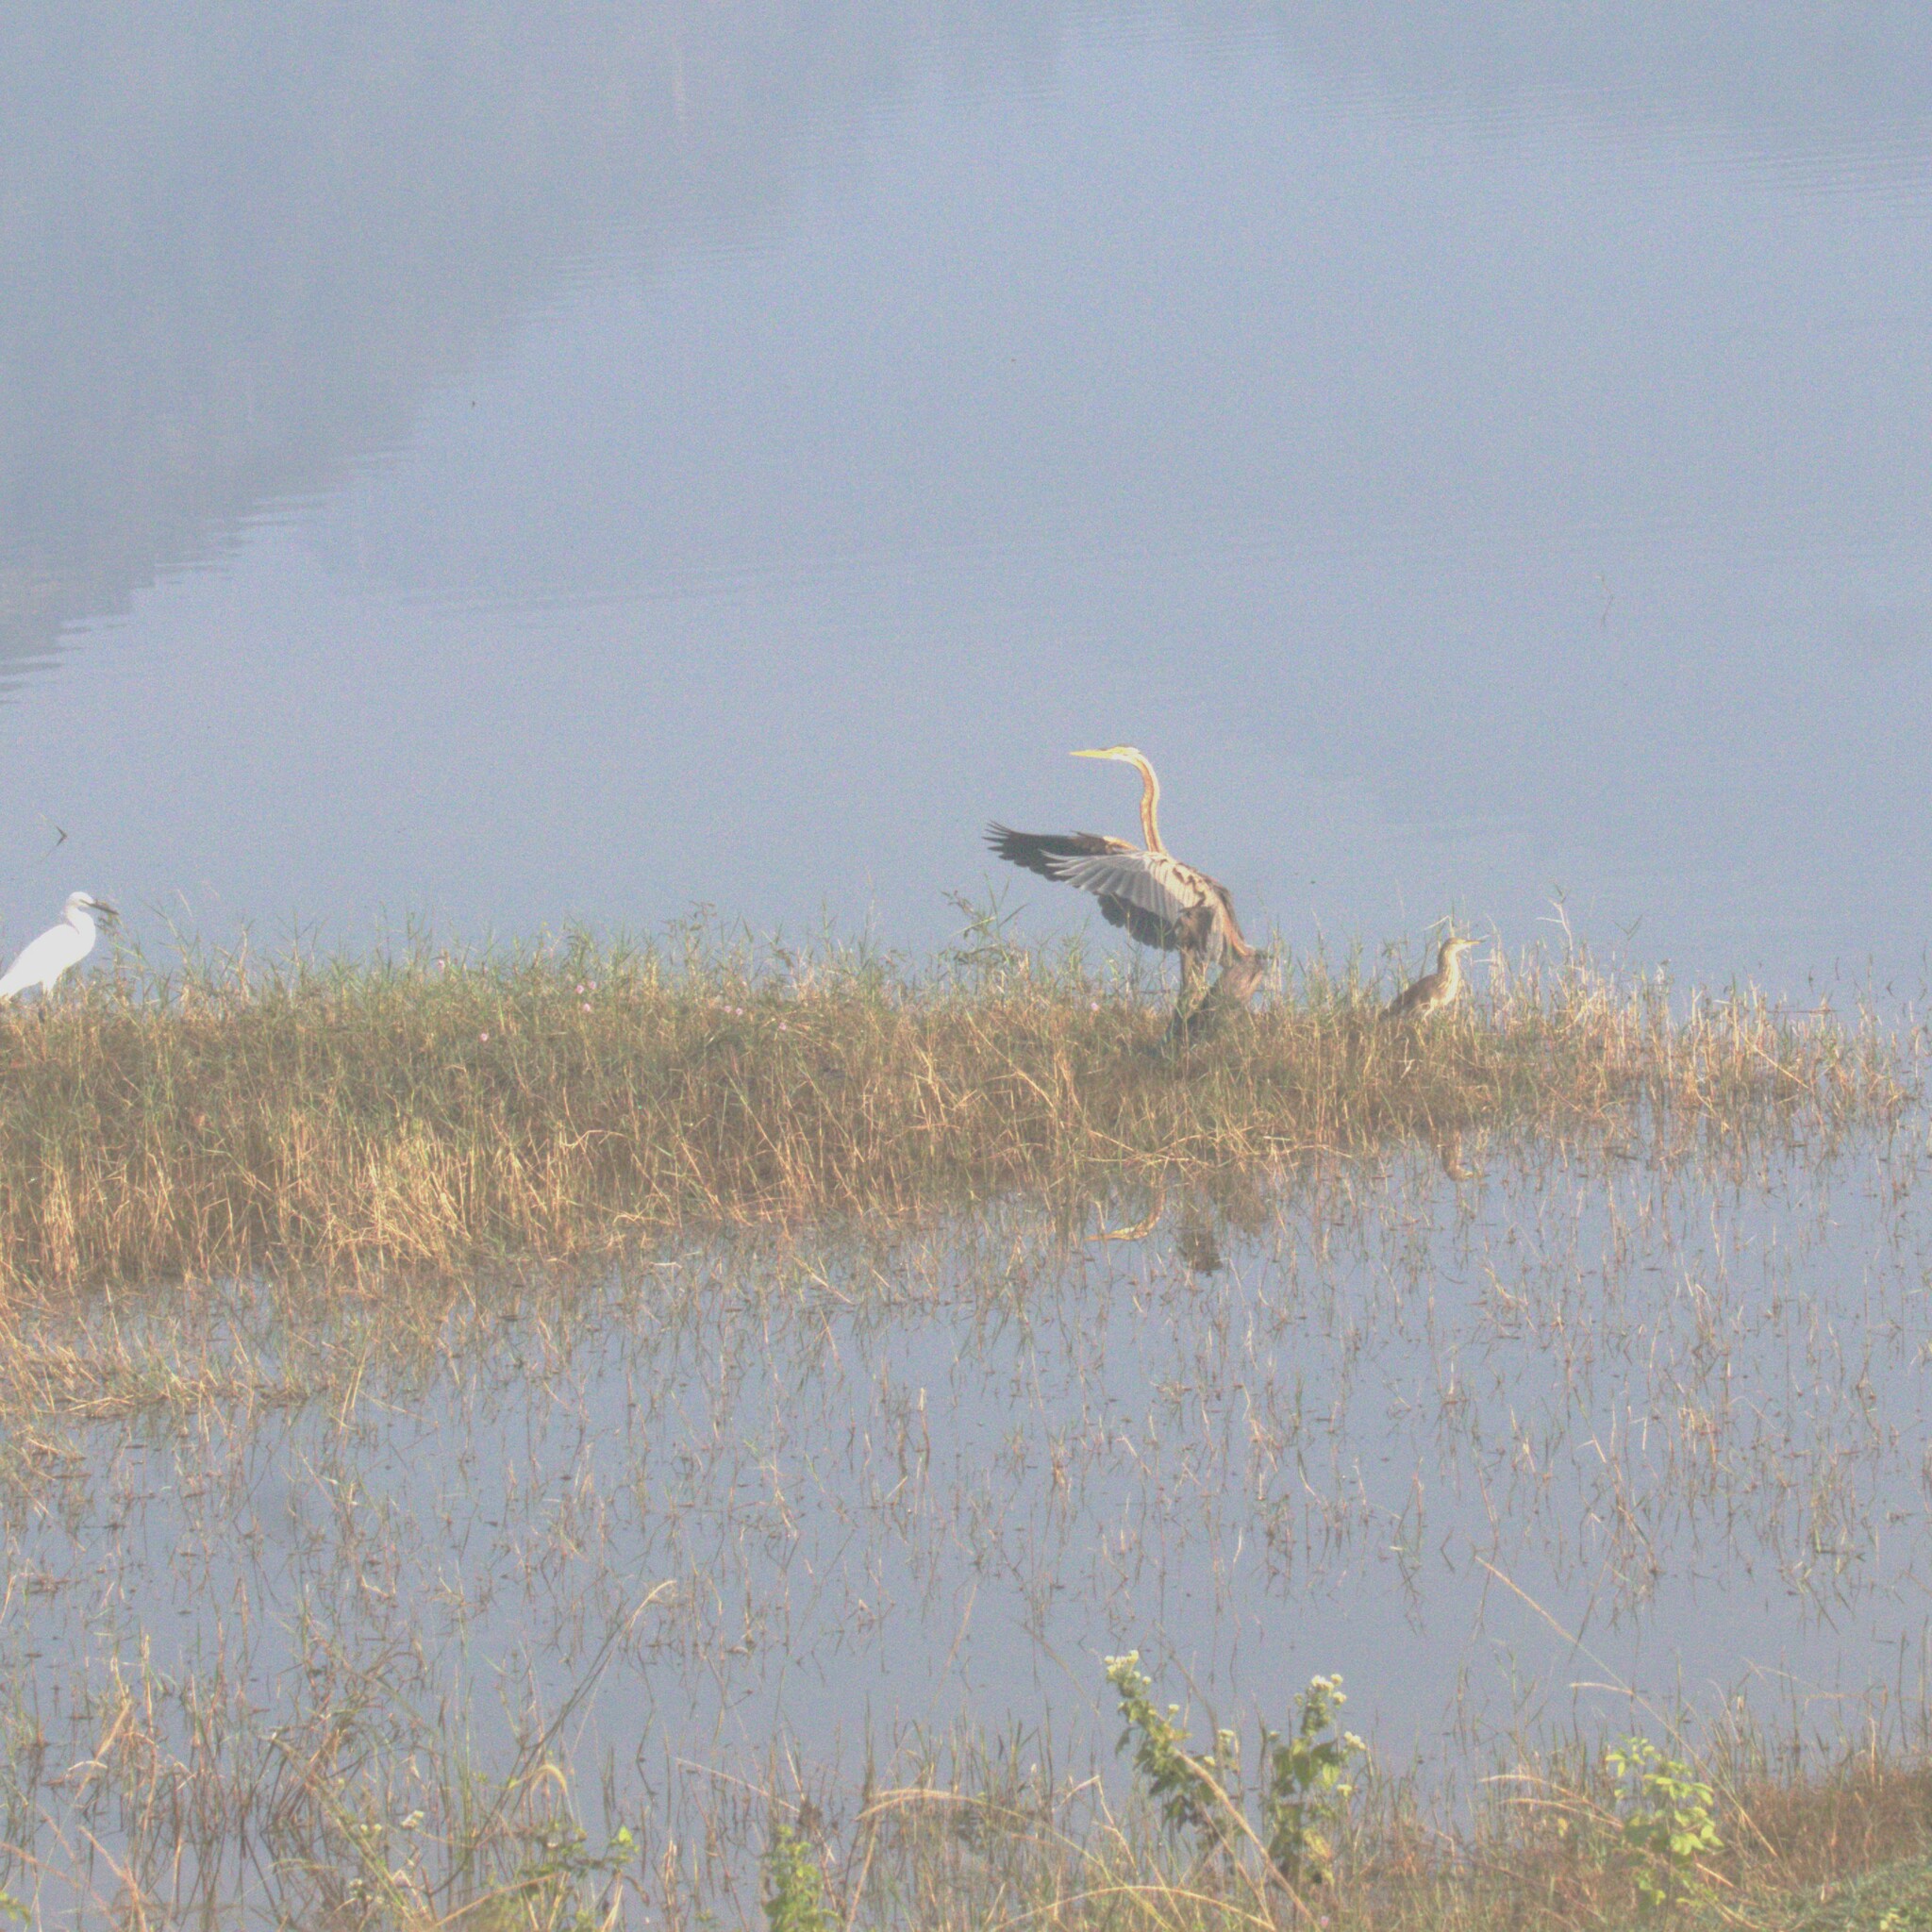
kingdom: Animalia
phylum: Chordata
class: Aves
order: Pelecaniformes
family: Ardeidae
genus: Ardea
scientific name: Ardea purpurea
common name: Purple heron
